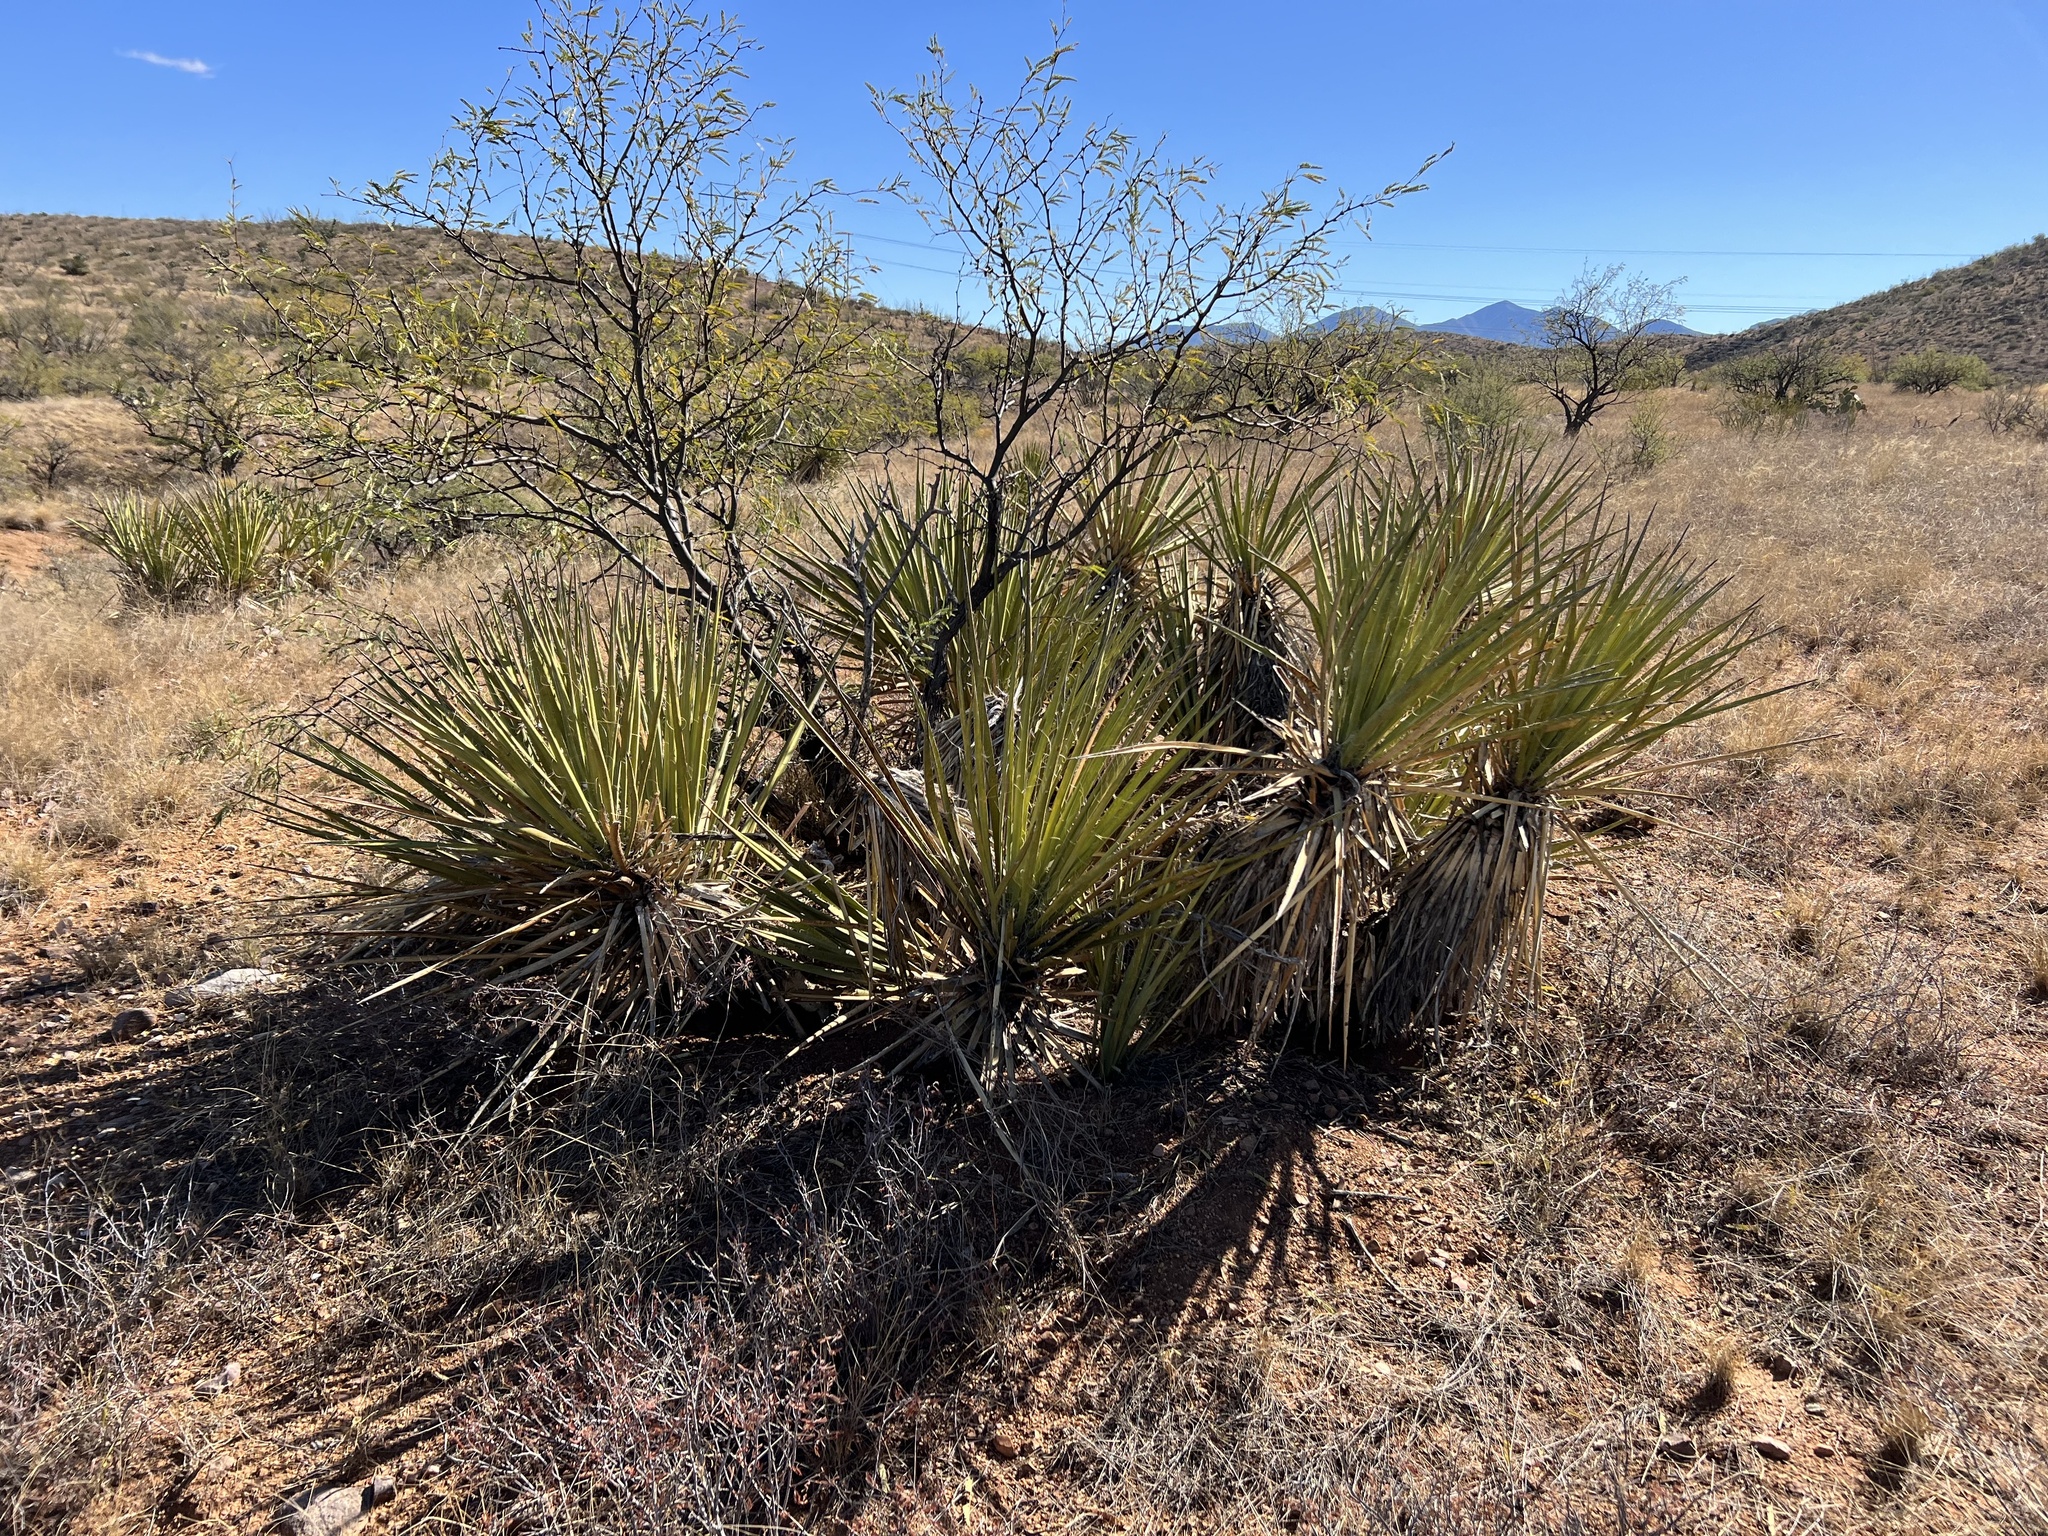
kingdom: Plantae
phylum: Tracheophyta
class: Liliopsida
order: Asparagales
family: Asparagaceae
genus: Yucca
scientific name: Yucca baccata
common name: Banana yucca
